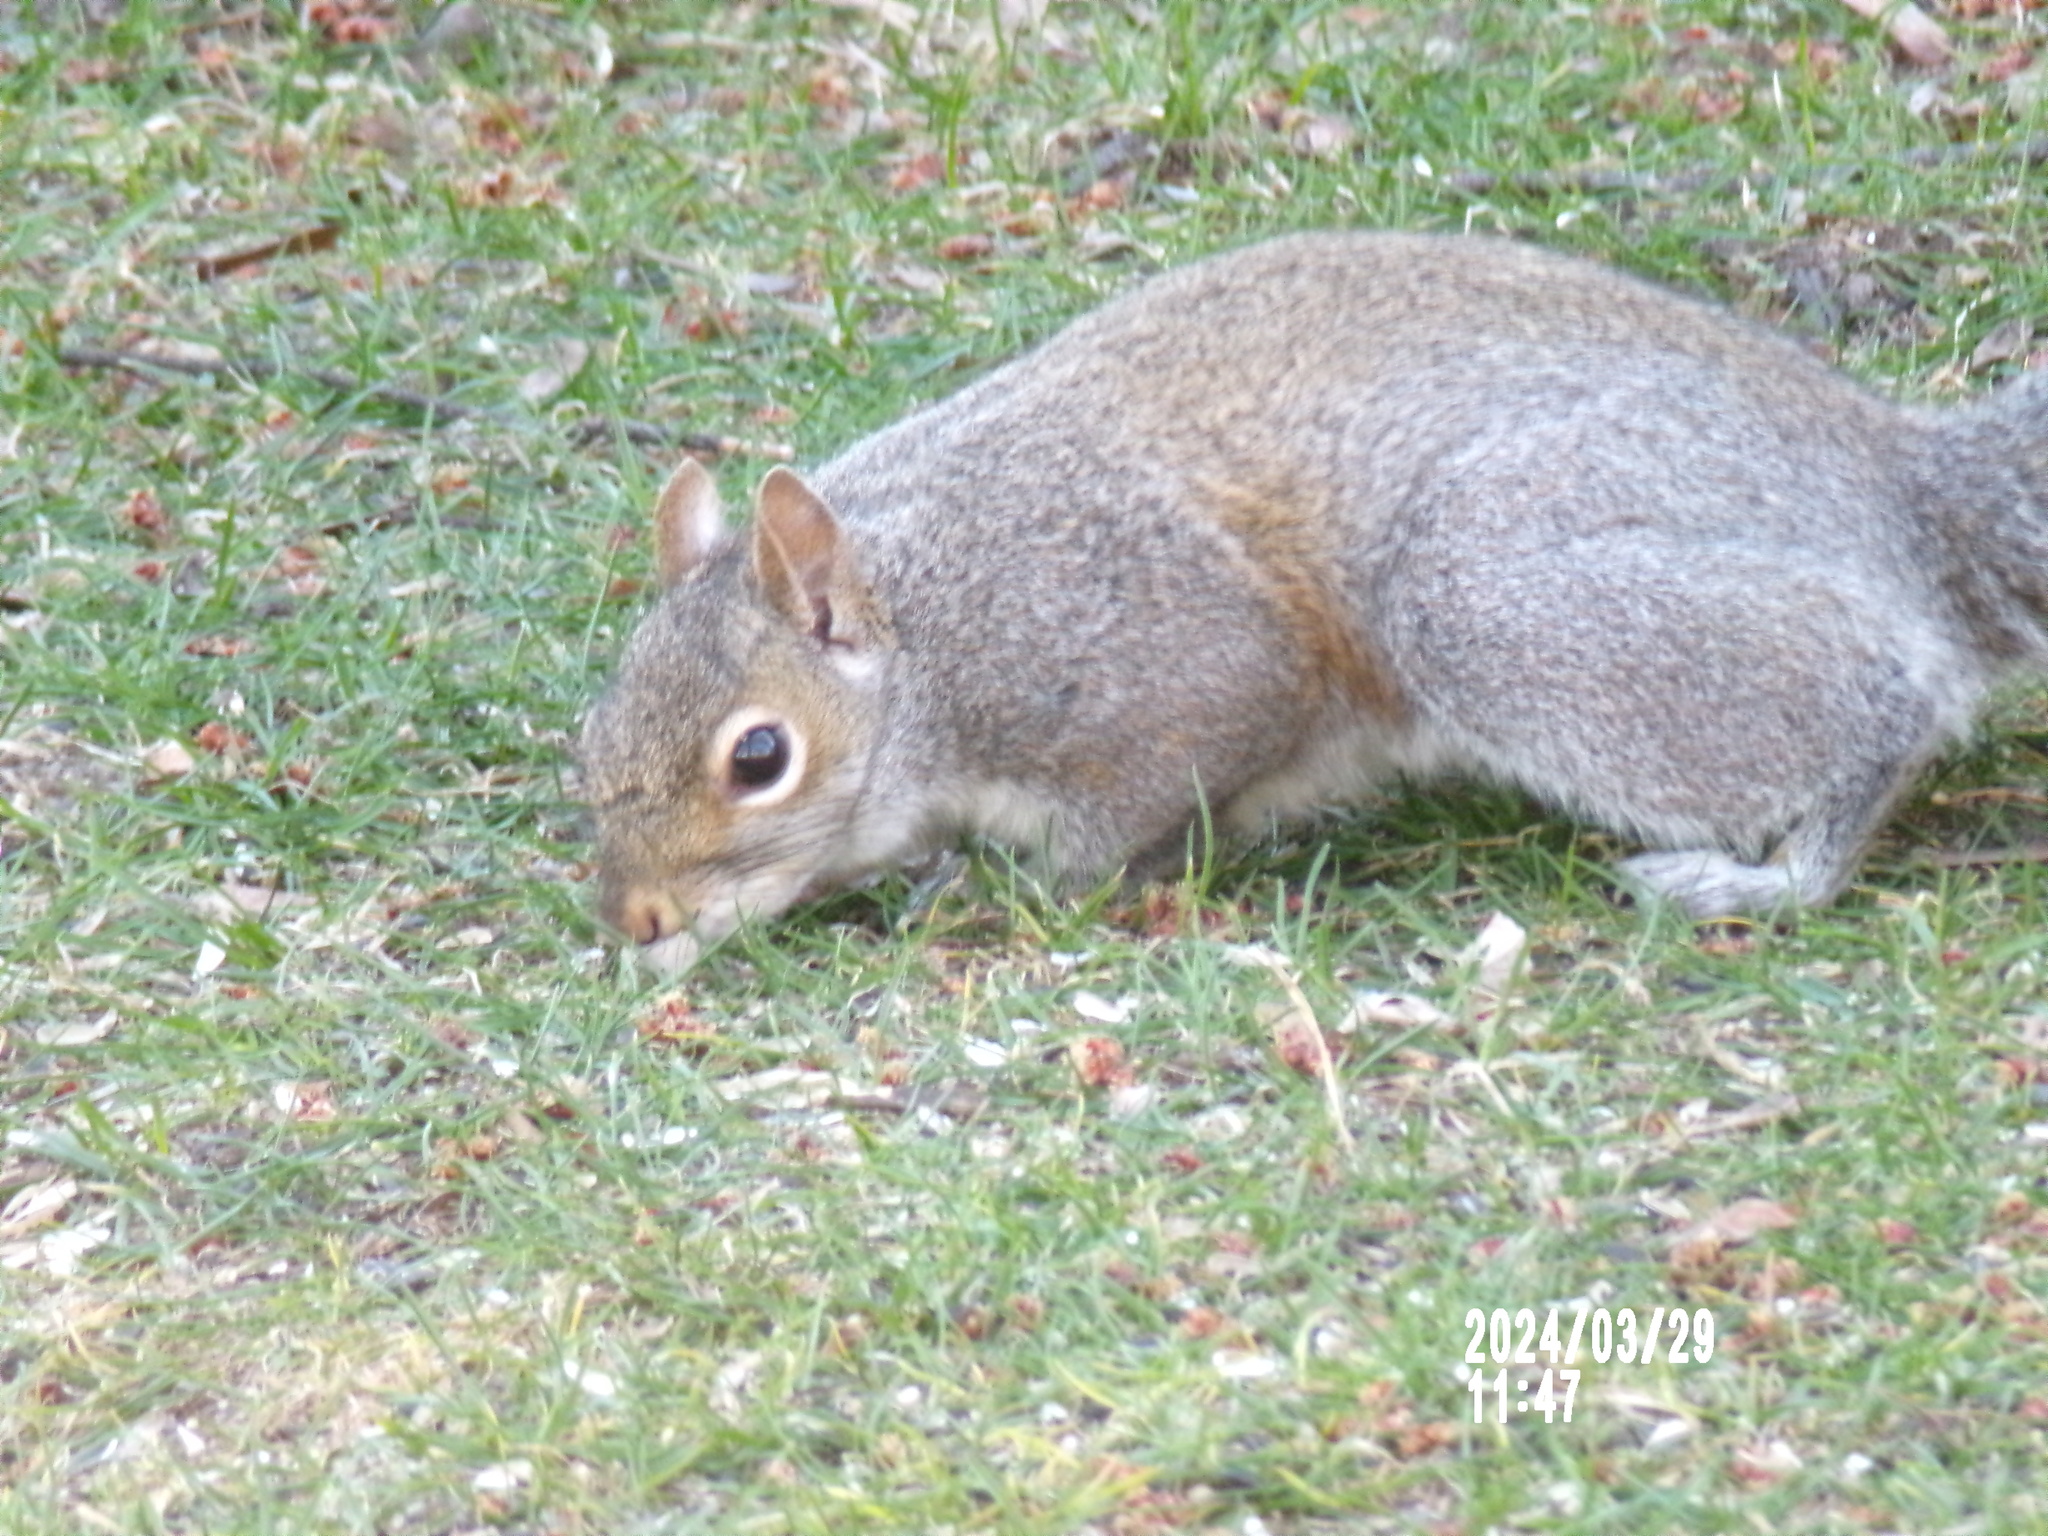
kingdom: Animalia
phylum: Chordata
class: Mammalia
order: Rodentia
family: Sciuridae
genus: Sciurus
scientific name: Sciurus carolinensis
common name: Eastern gray squirrel
